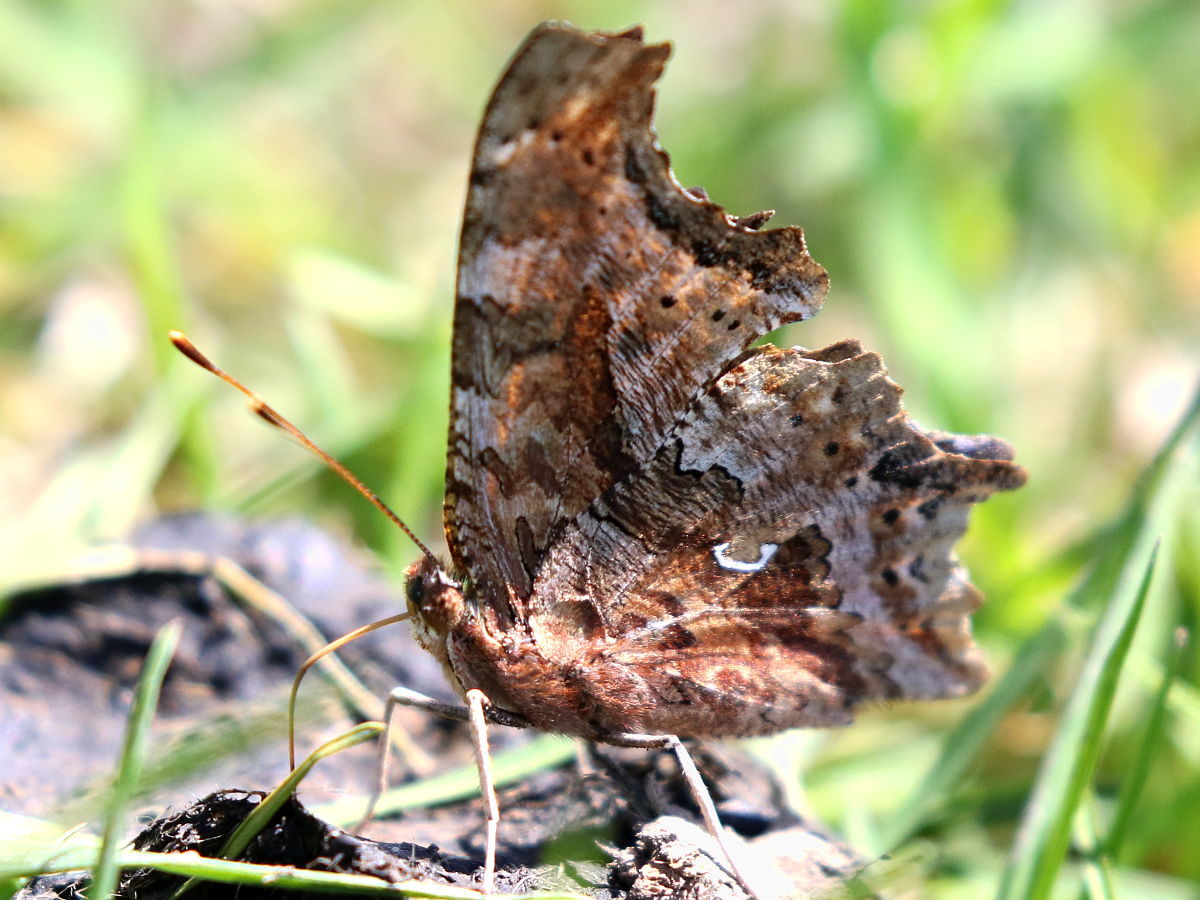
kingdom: Animalia
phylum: Arthropoda
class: Insecta
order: Lepidoptera
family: Nymphalidae
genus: Polygonia
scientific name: Polygonia comma
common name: Eastern comma
